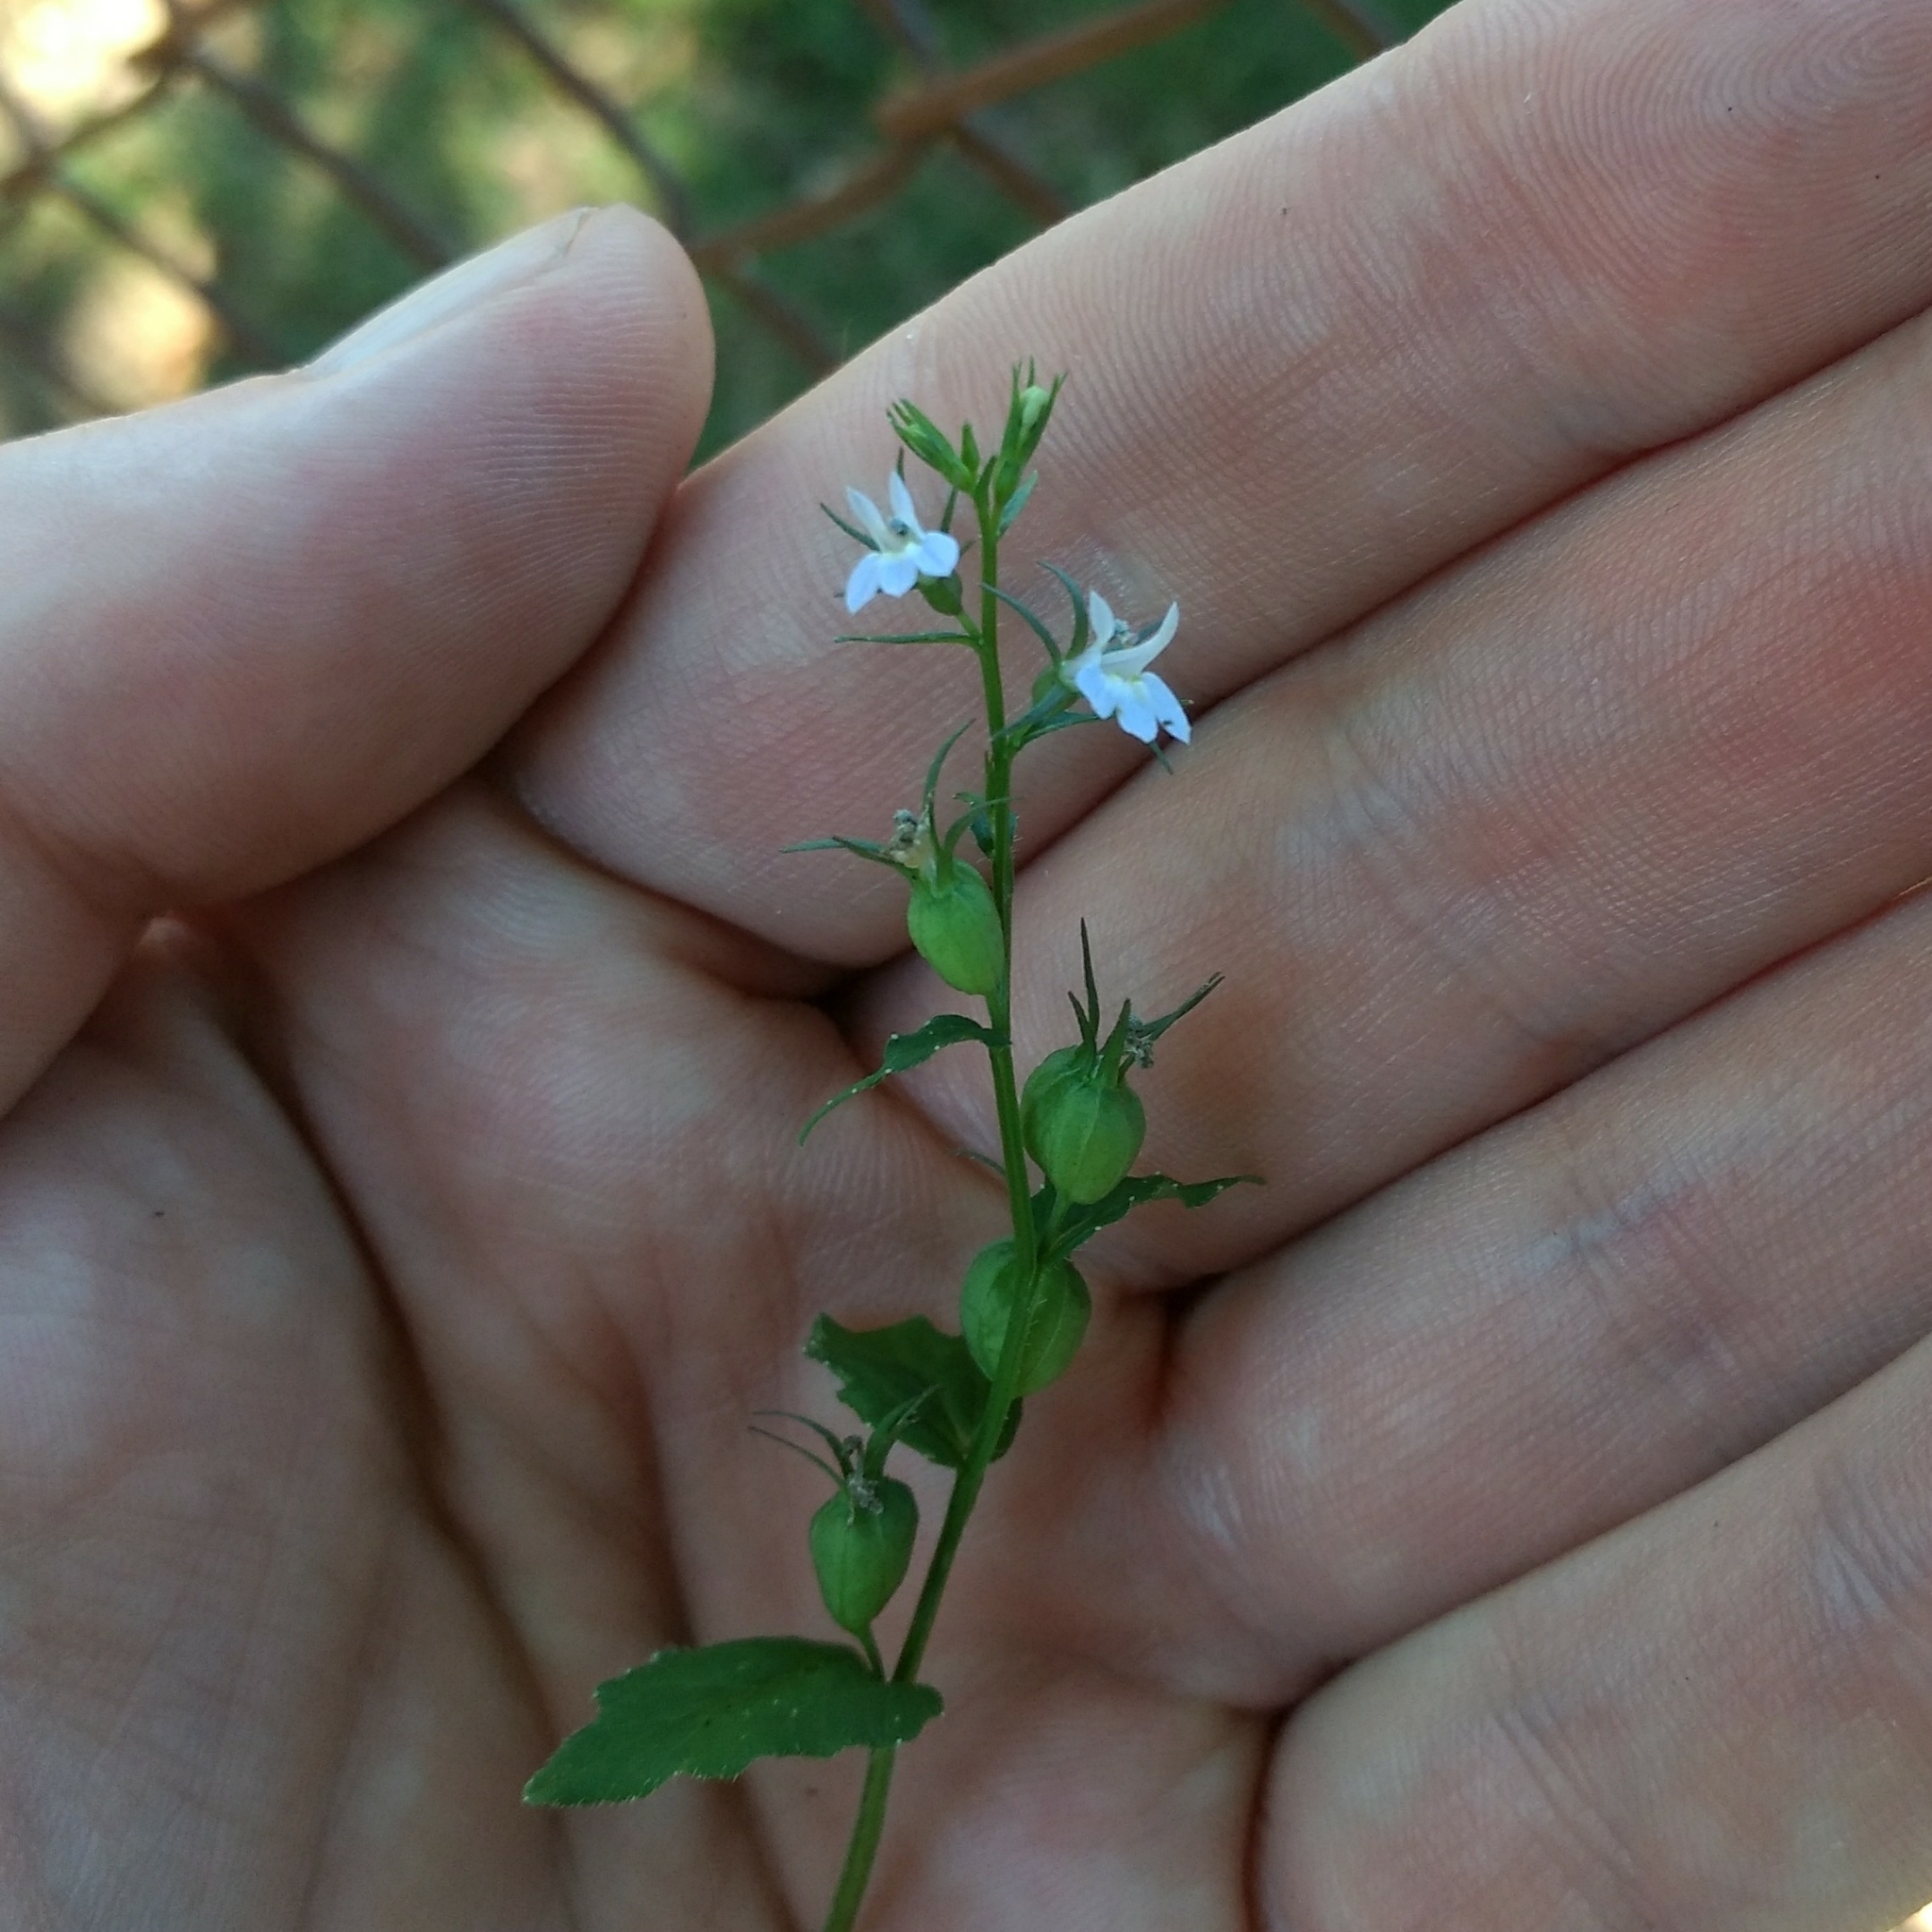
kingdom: Plantae
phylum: Tracheophyta
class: Magnoliopsida
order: Asterales
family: Campanulaceae
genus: Lobelia
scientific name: Lobelia inflata
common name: Indian tobacco
